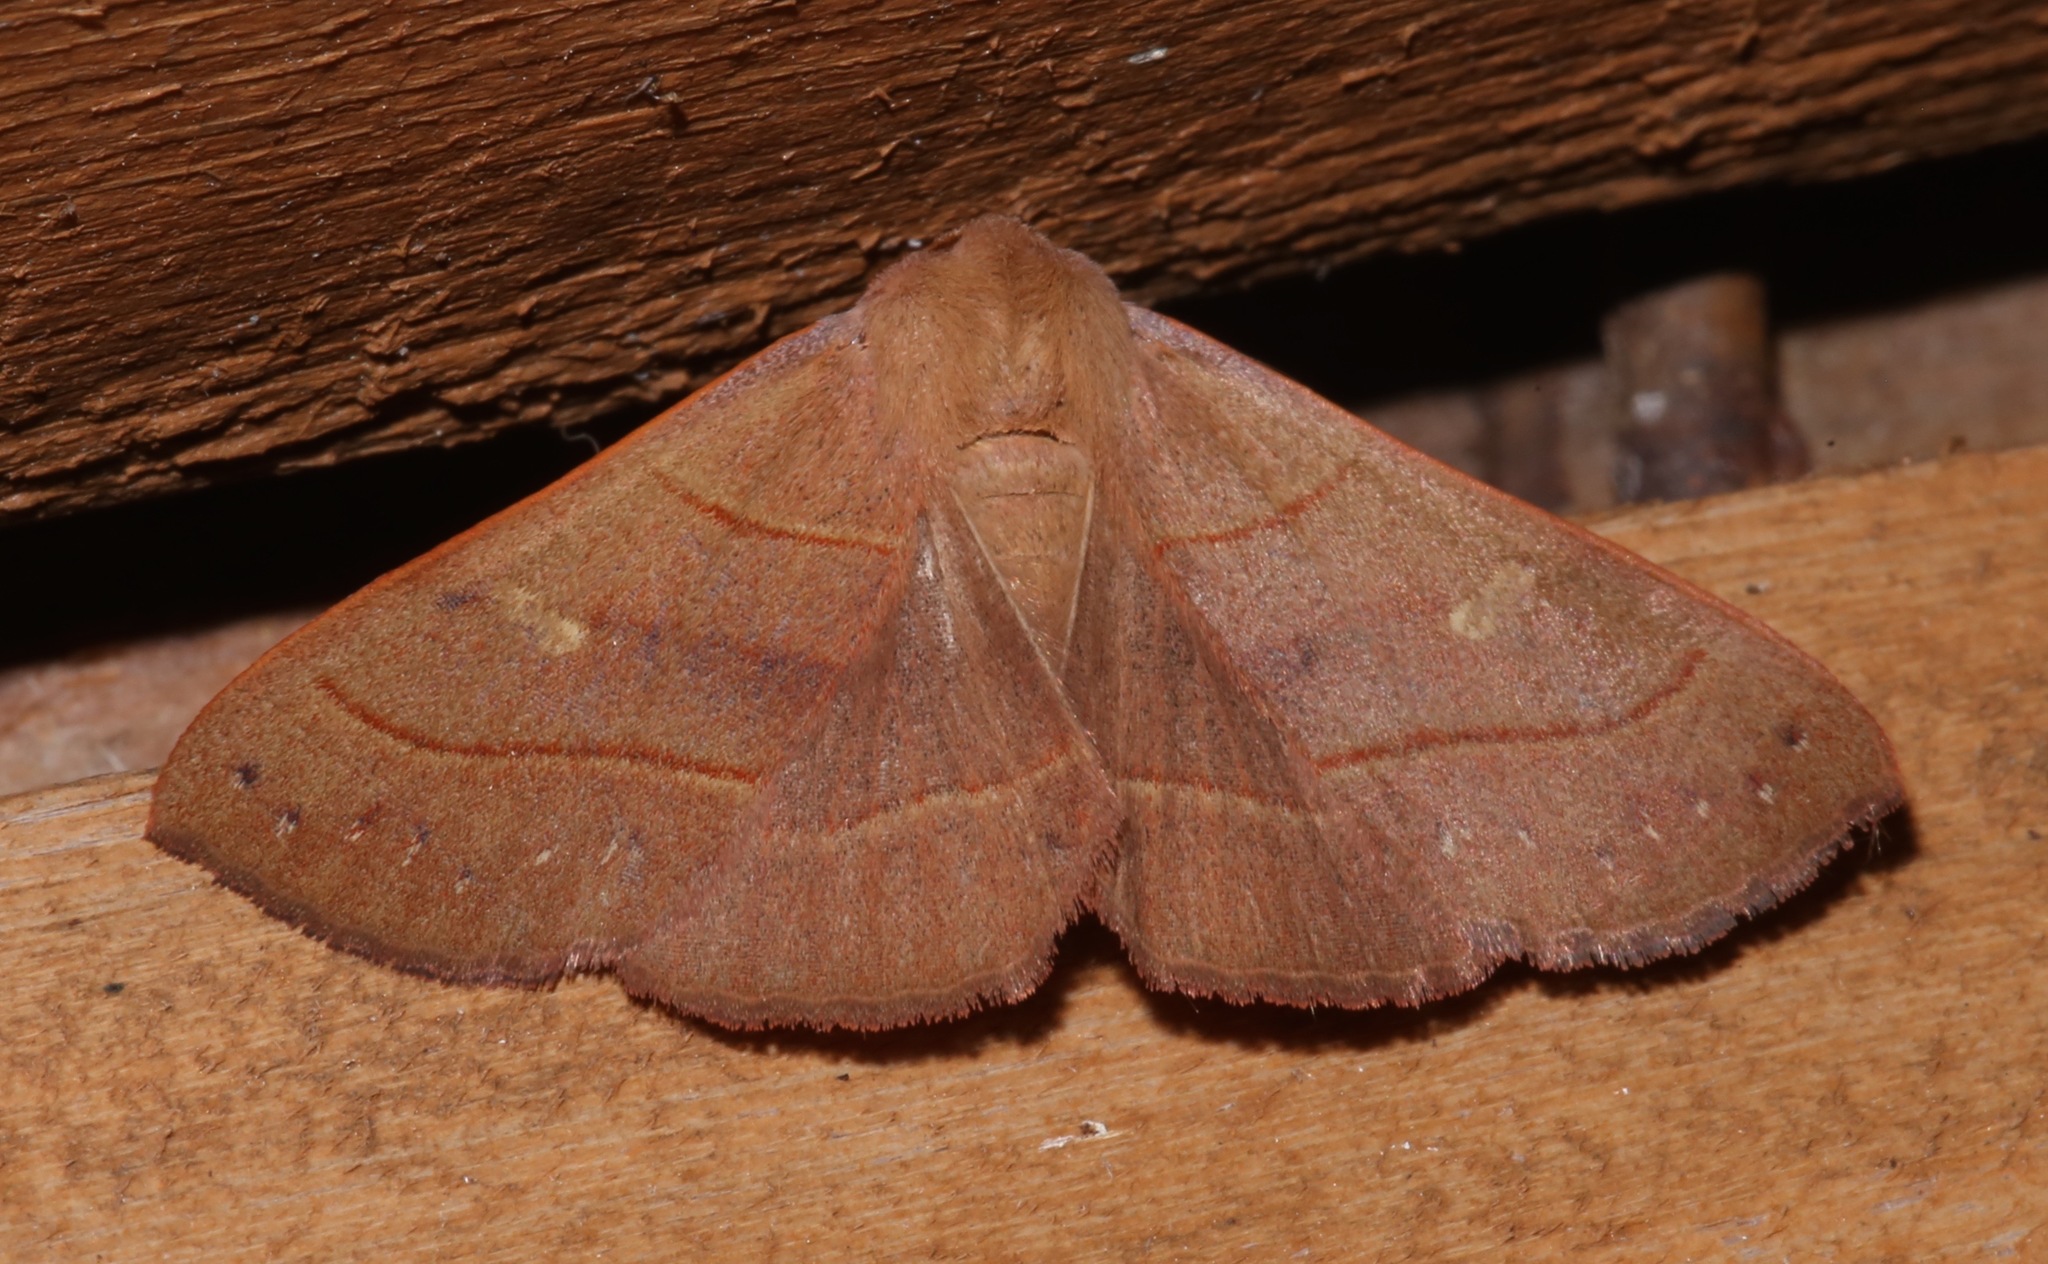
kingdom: Animalia
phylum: Arthropoda
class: Insecta
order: Lepidoptera
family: Erebidae
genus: Panopoda
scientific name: Panopoda rufimargo
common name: Red-lined panopoda moth
